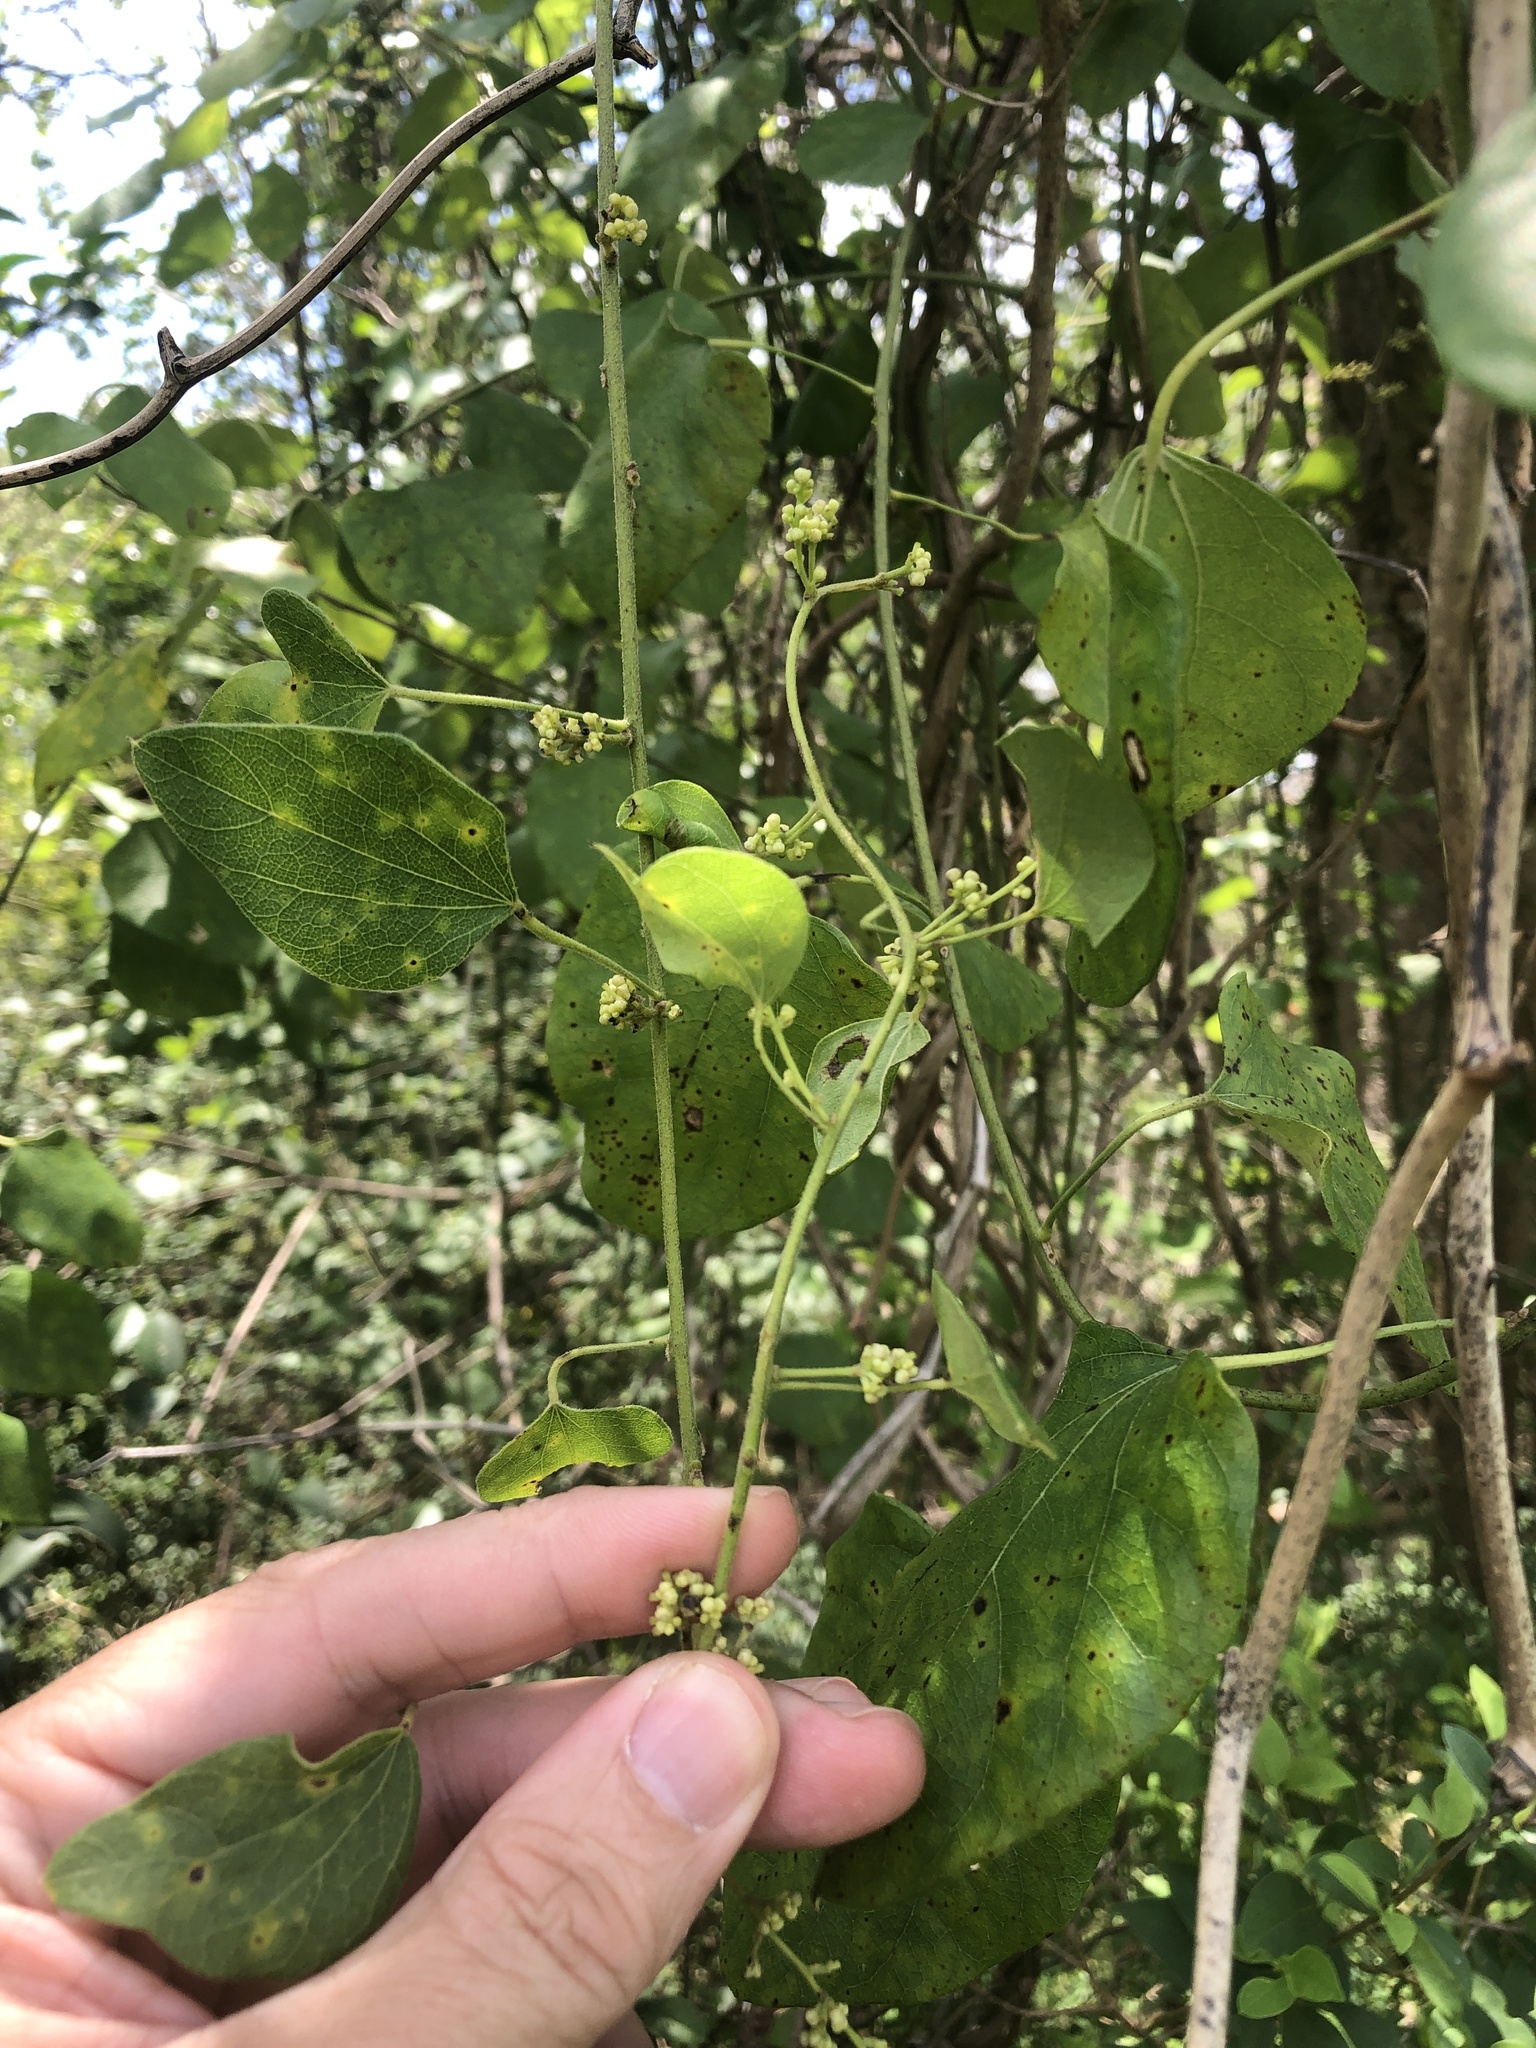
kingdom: Plantae
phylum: Tracheophyta
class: Magnoliopsida
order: Ranunculales
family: Menispermaceae
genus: Cocculus
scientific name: Cocculus carolinus
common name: Carolina moonseed
